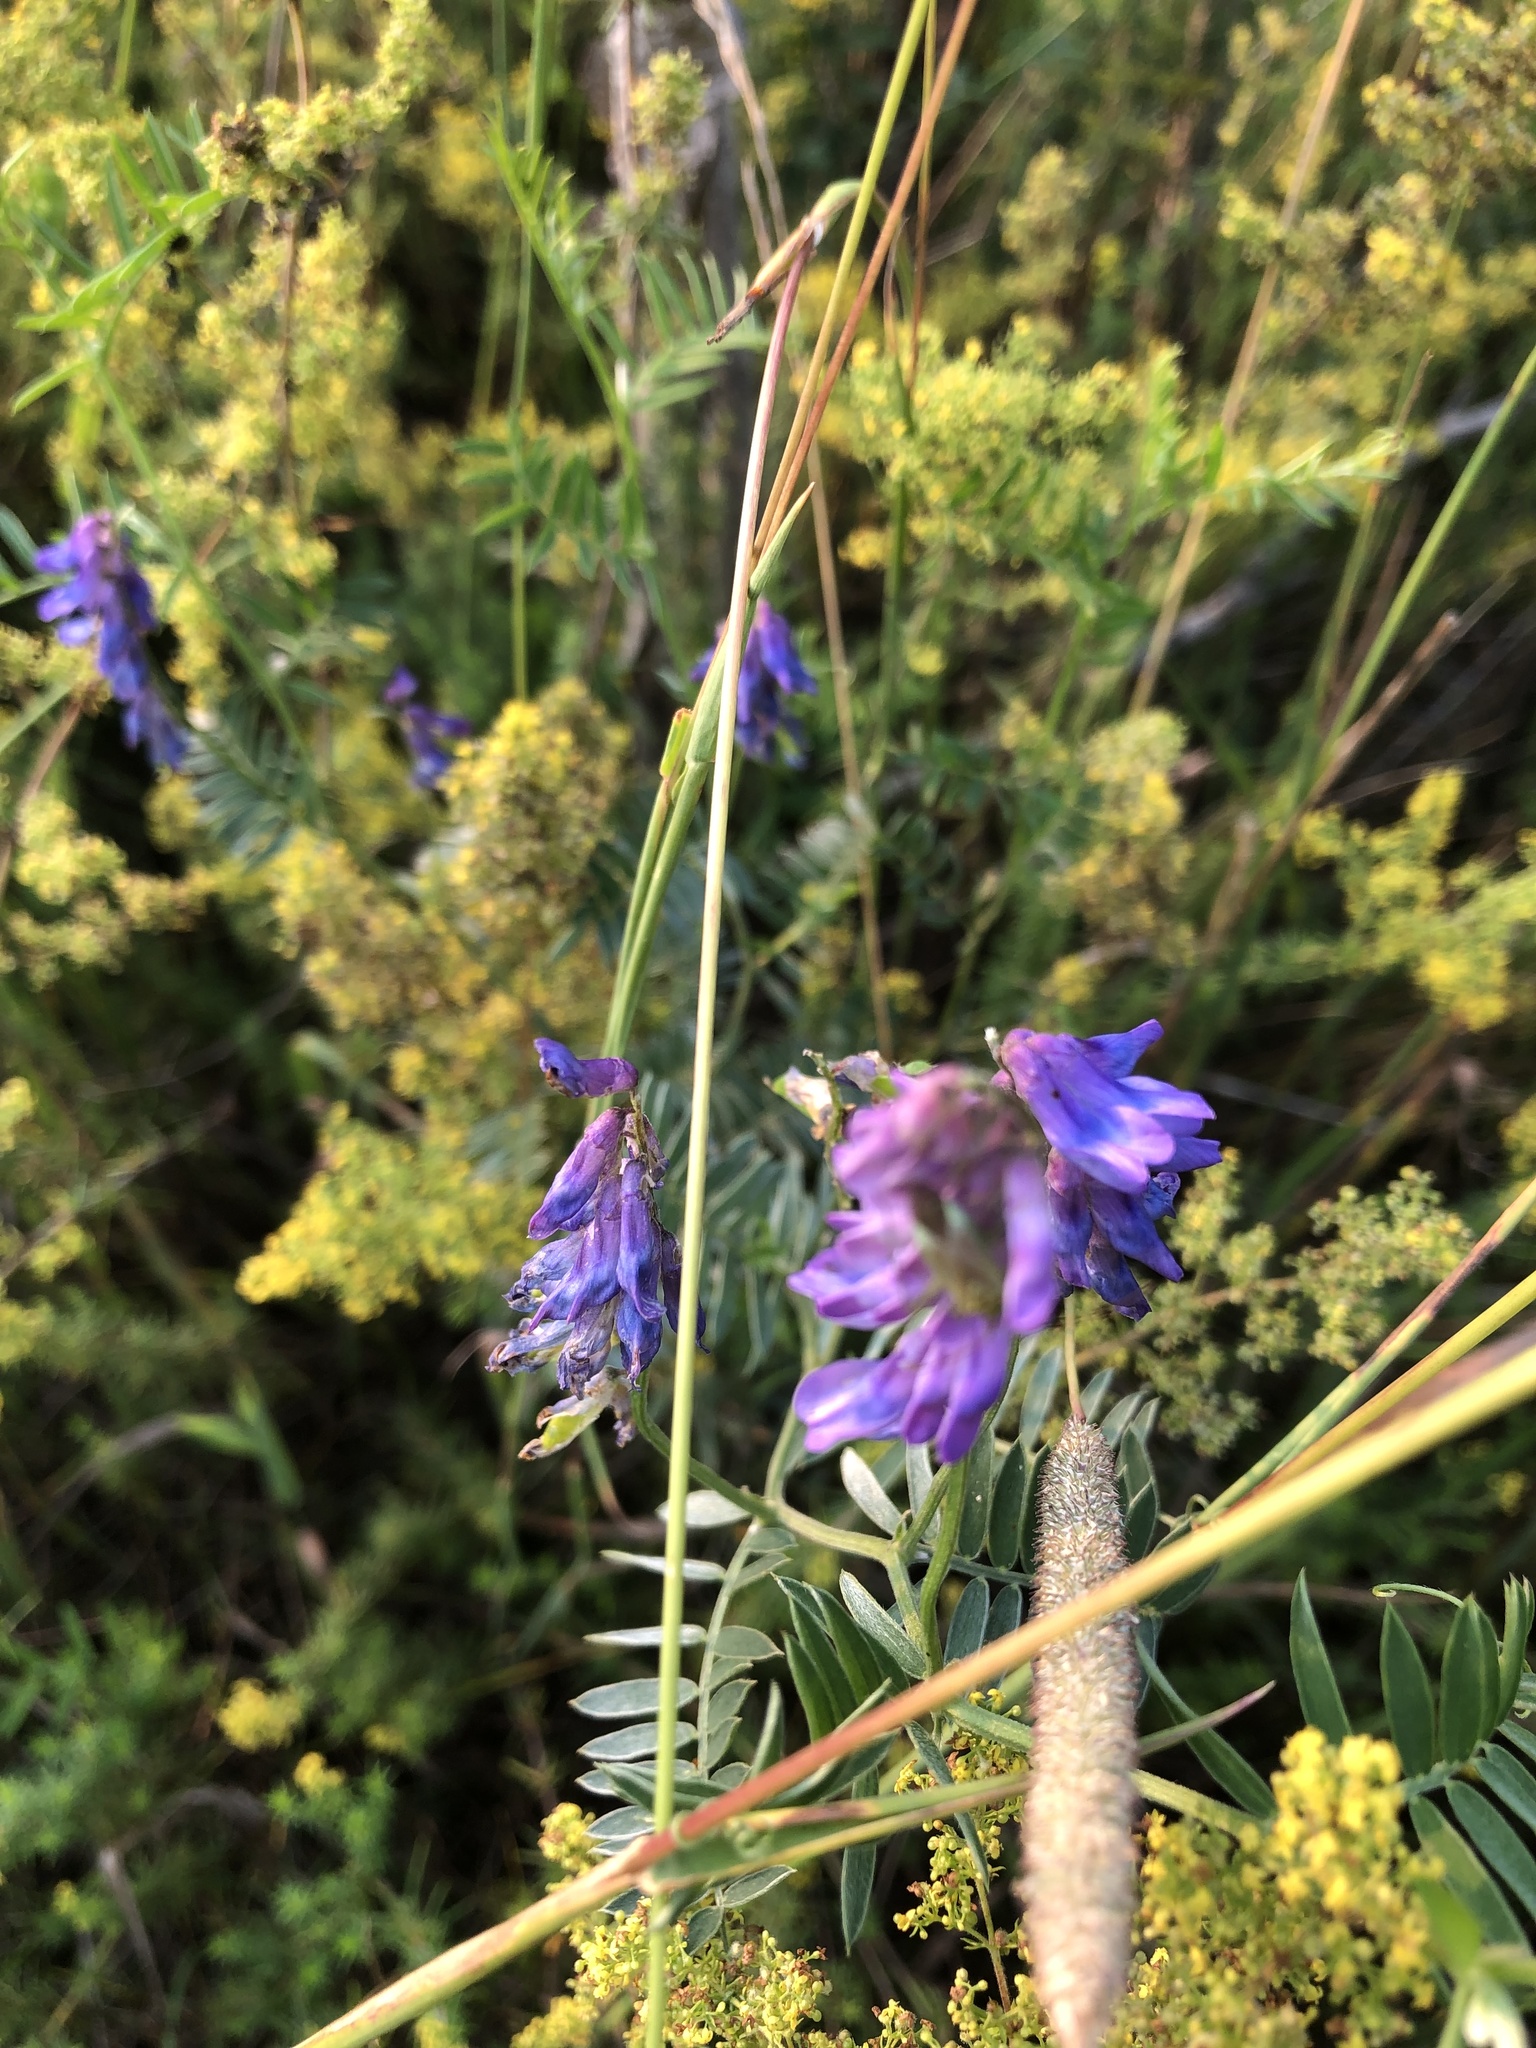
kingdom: Plantae
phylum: Tracheophyta
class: Magnoliopsida
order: Fabales
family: Fabaceae
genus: Vicia
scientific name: Vicia cracca
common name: Bird vetch
